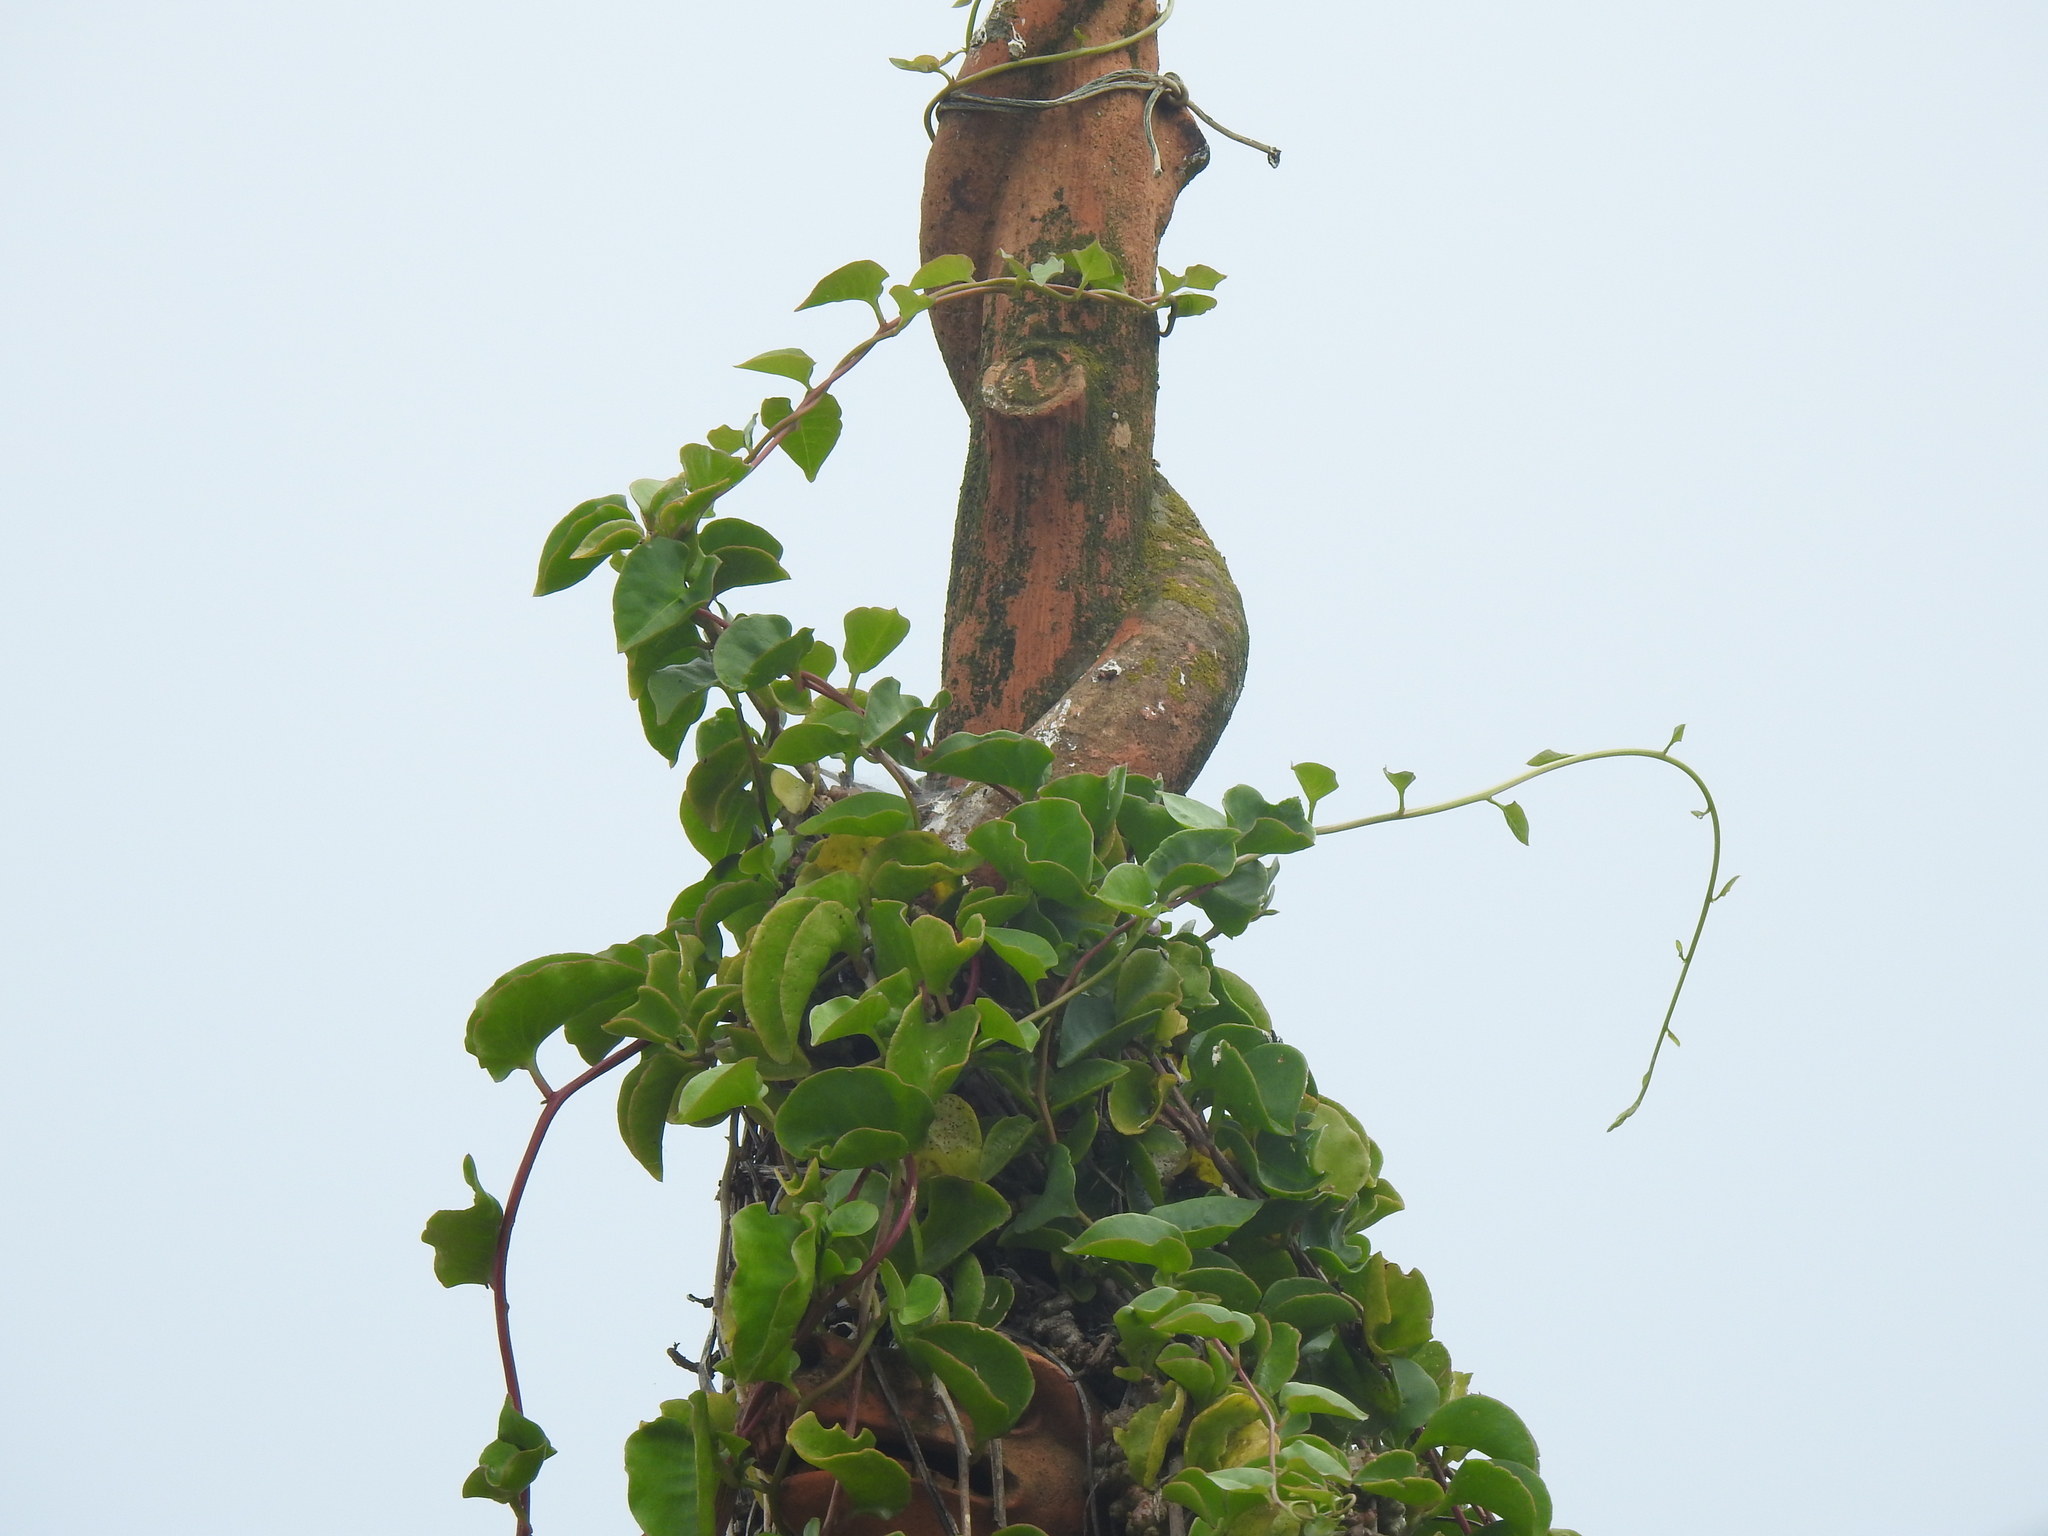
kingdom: Plantae
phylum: Tracheophyta
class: Magnoliopsida
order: Caryophyllales
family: Basellaceae
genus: Anredera
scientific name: Anredera cordifolia
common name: Heartleaf madeiravine
